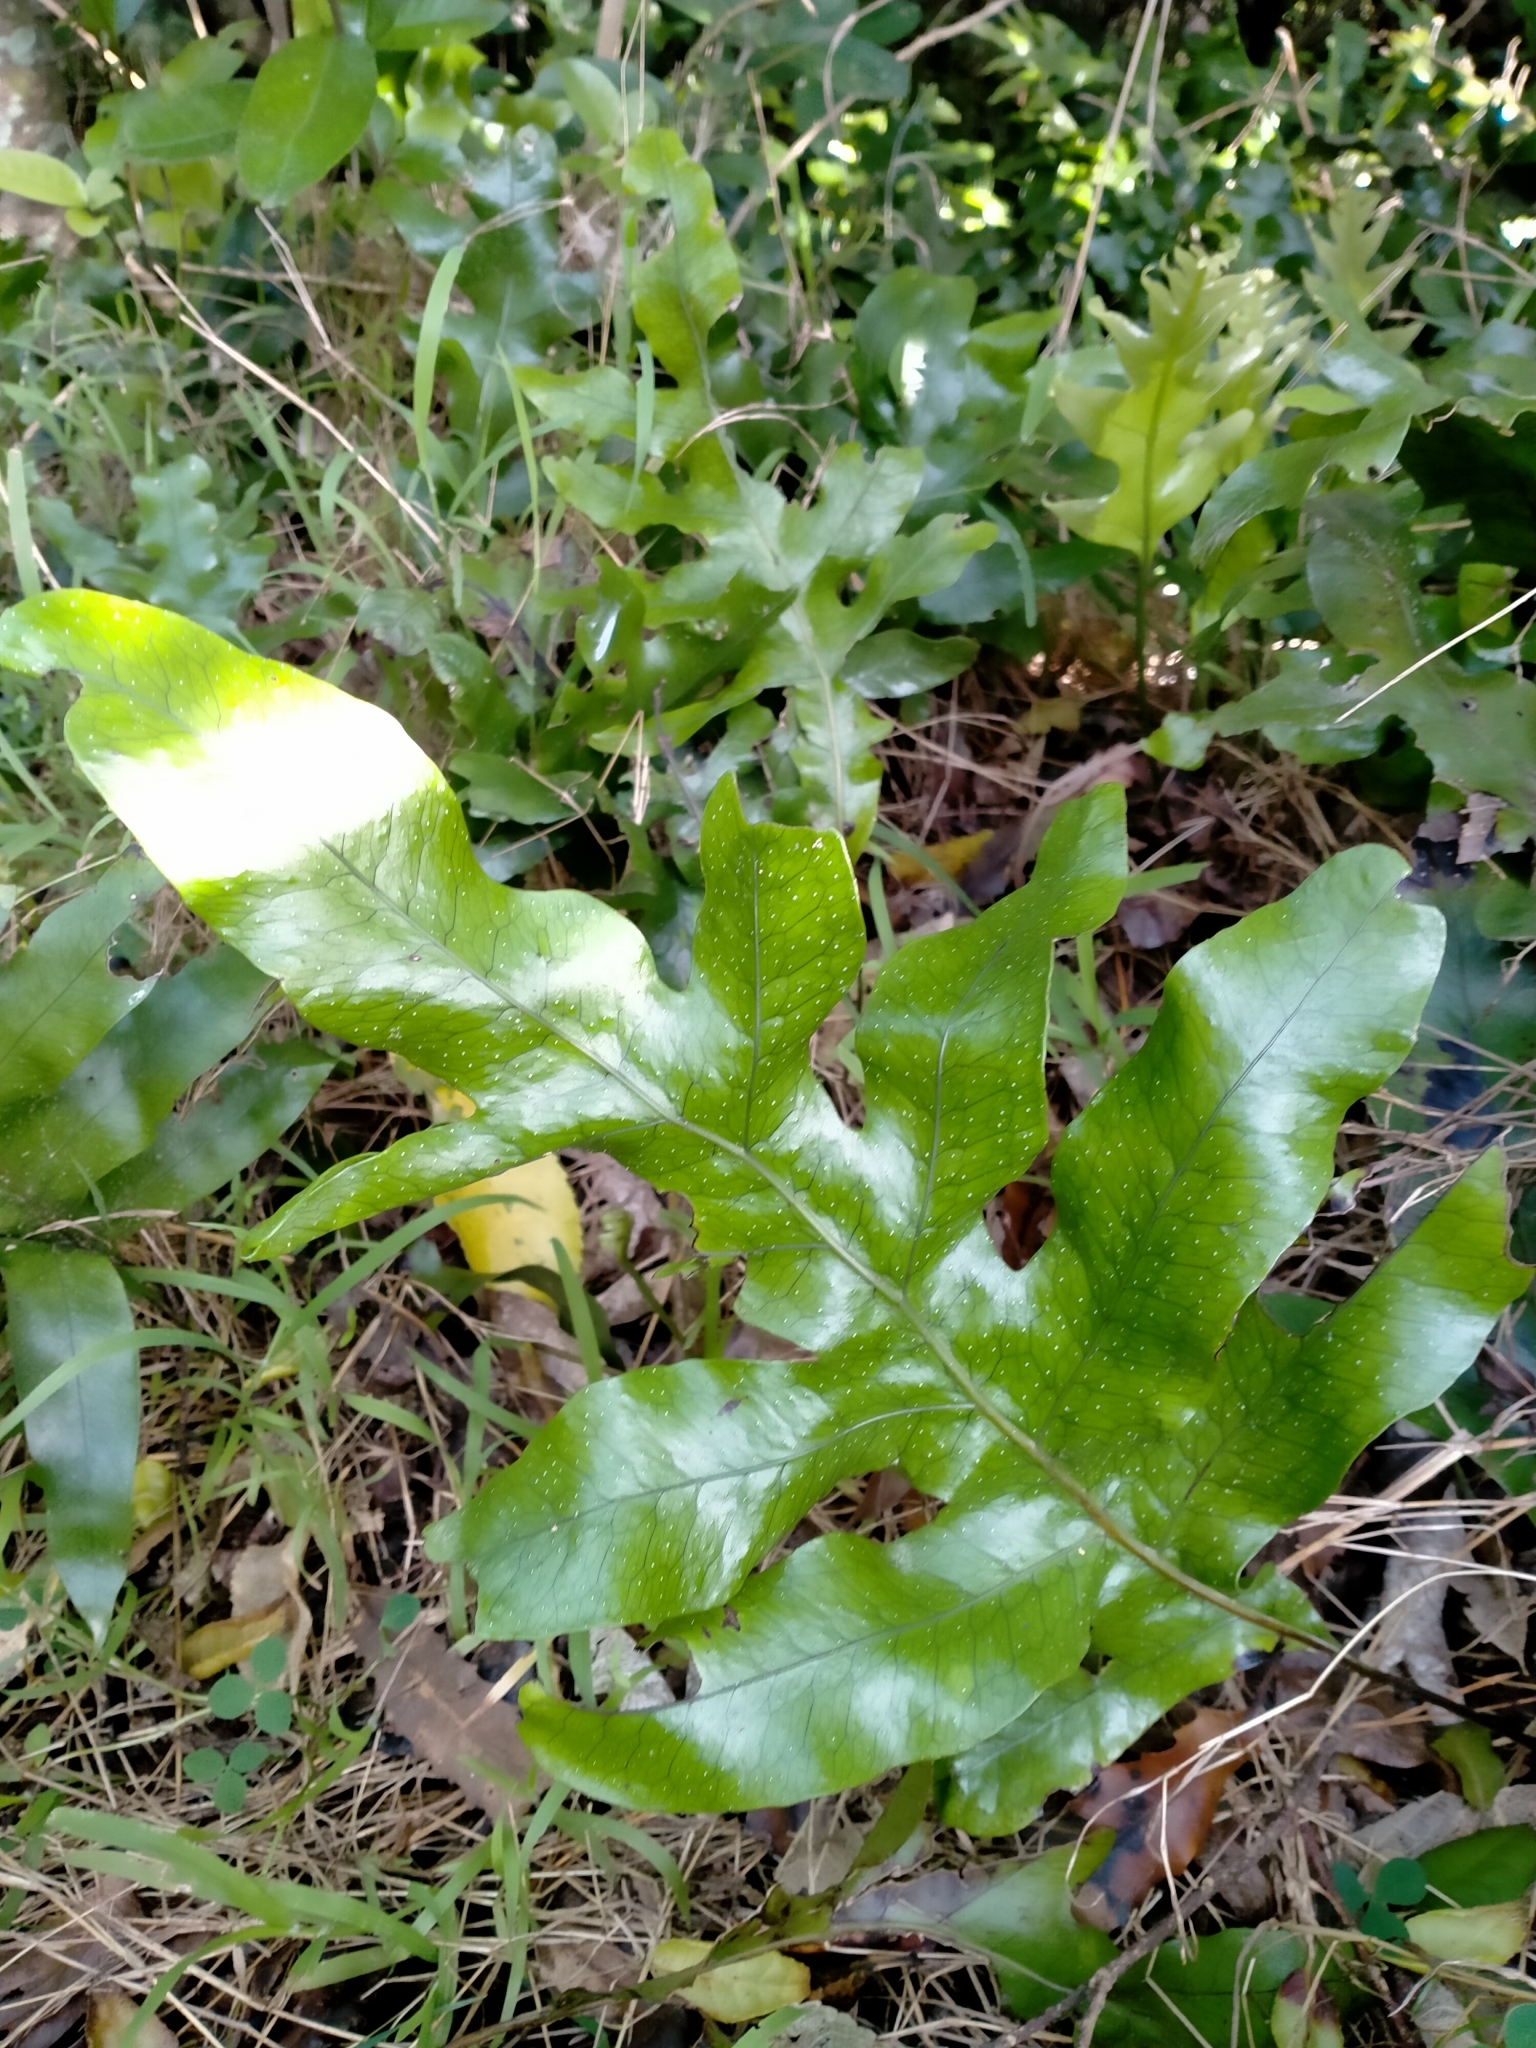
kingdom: Plantae
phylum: Tracheophyta
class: Polypodiopsida
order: Polypodiales
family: Polypodiaceae
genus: Lecanopteris
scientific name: Lecanopteris pustulata
